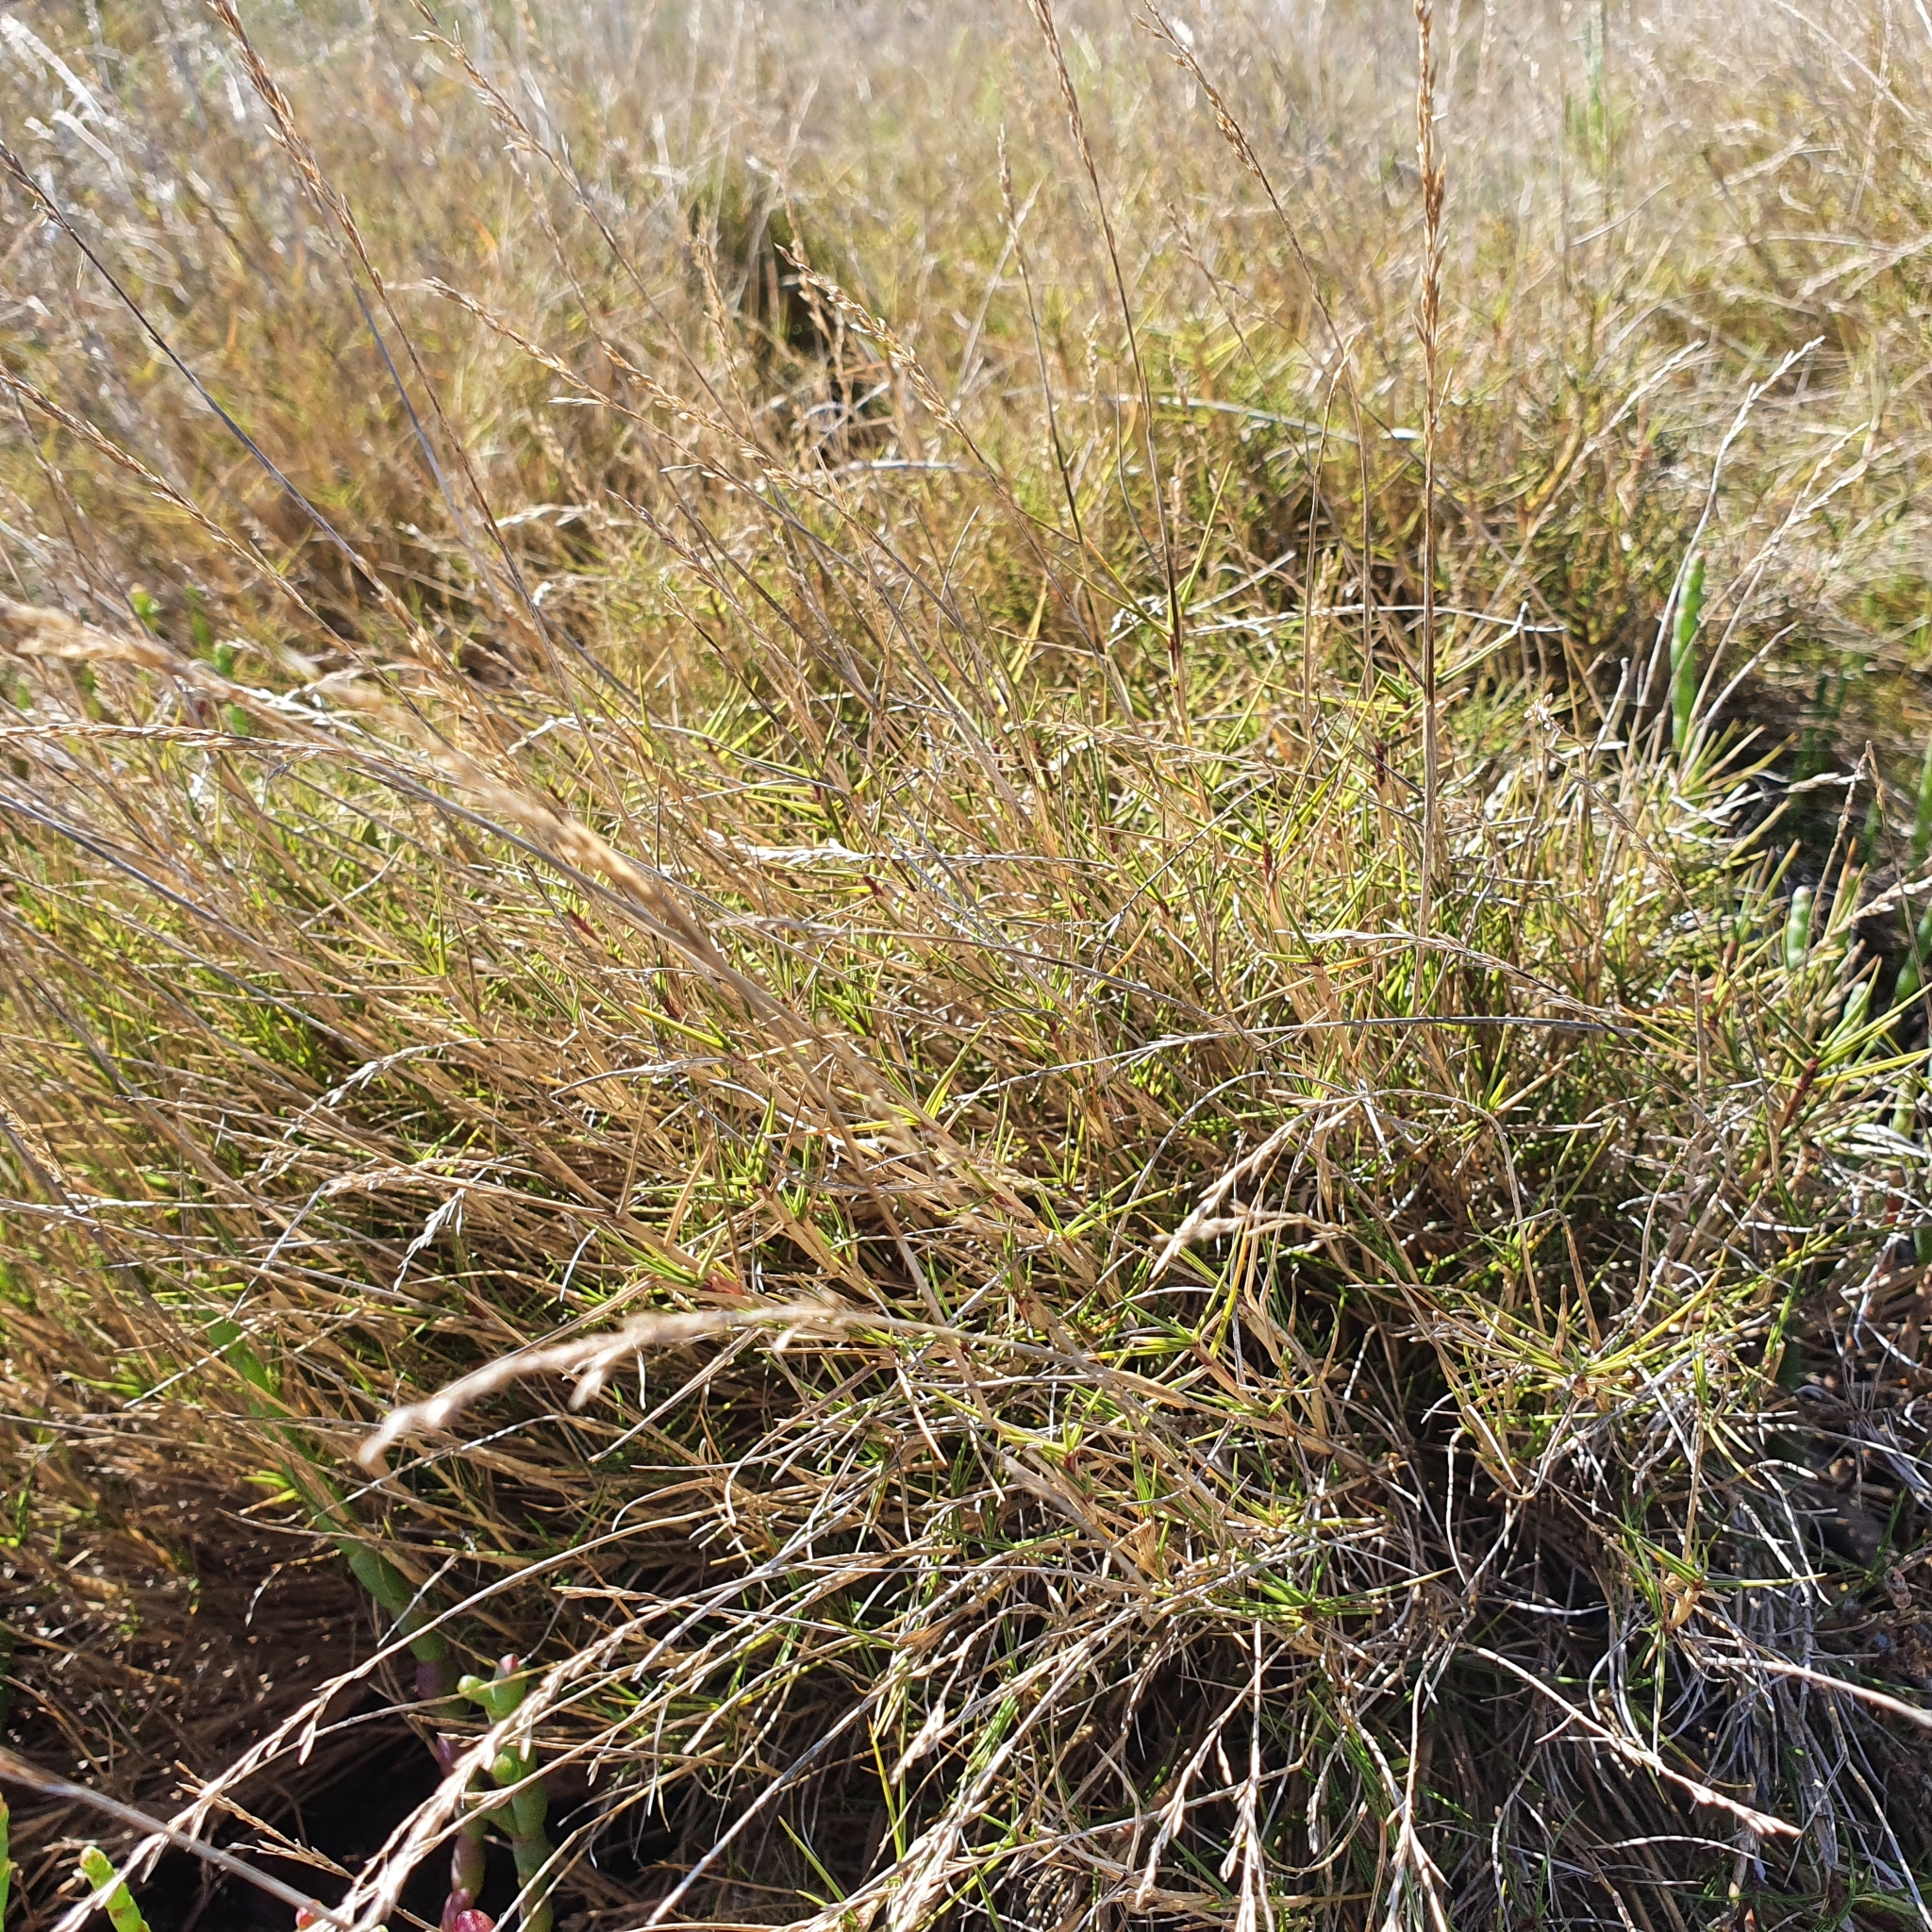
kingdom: Plantae
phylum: Tracheophyta
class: Liliopsida
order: Poales
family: Poaceae
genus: Sporobolus
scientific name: Sporobolus virginicus
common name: Beach dropseed
